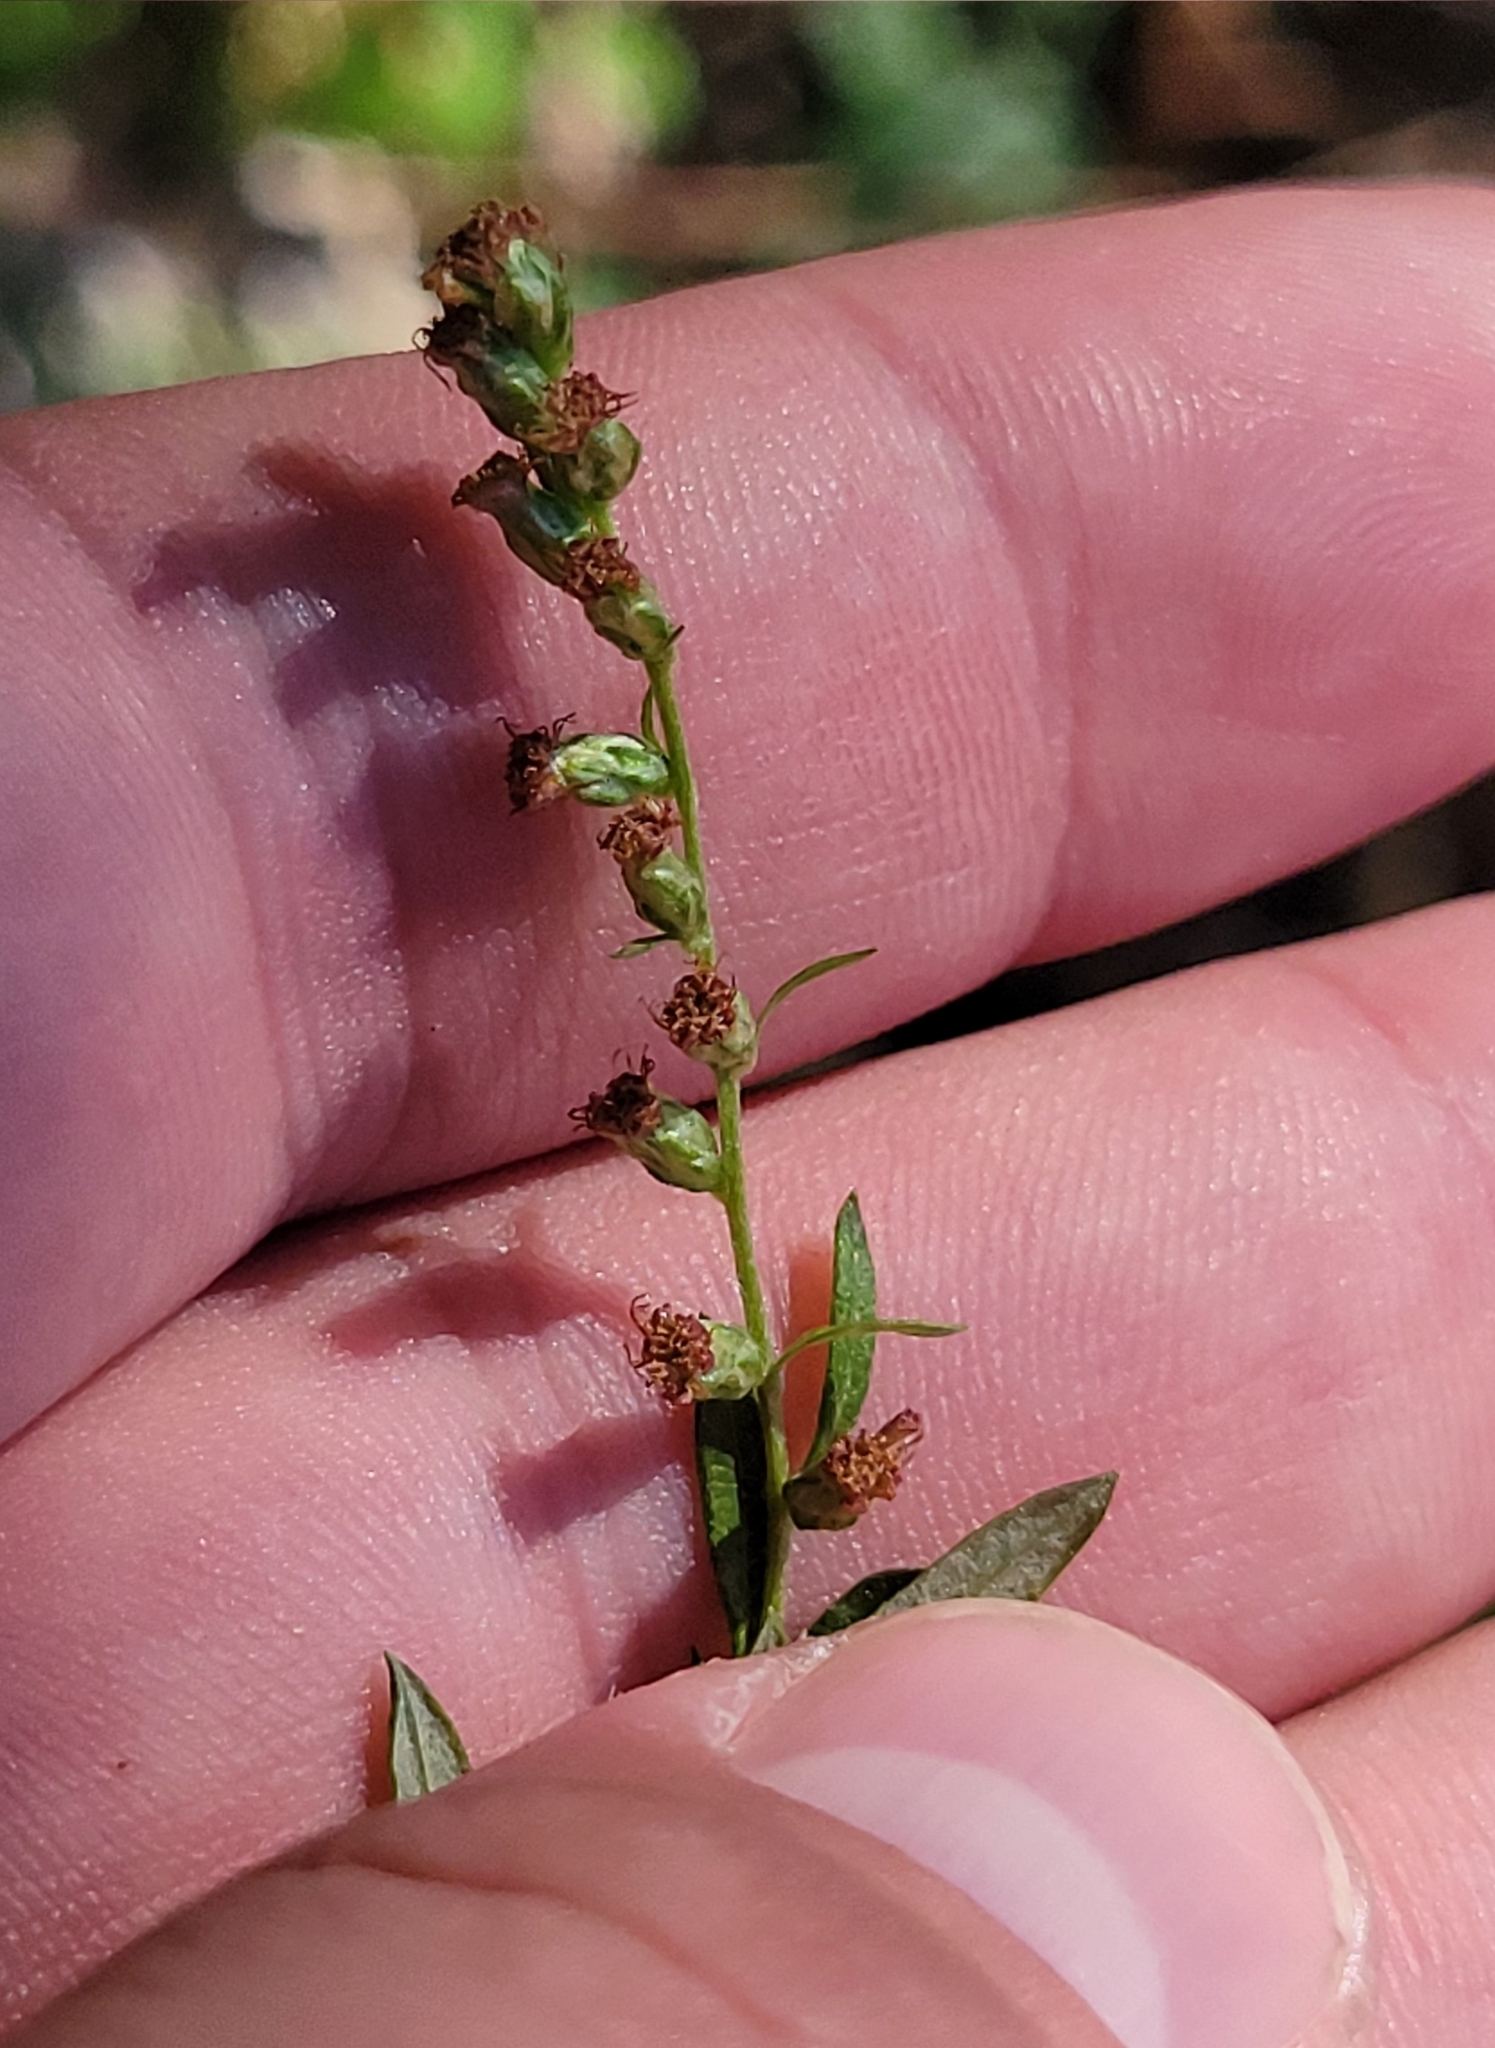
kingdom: Plantae
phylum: Tracheophyta
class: Magnoliopsida
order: Asterales
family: Asteraceae
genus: Artemisia
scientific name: Artemisia vulgaris
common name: Mugwort
